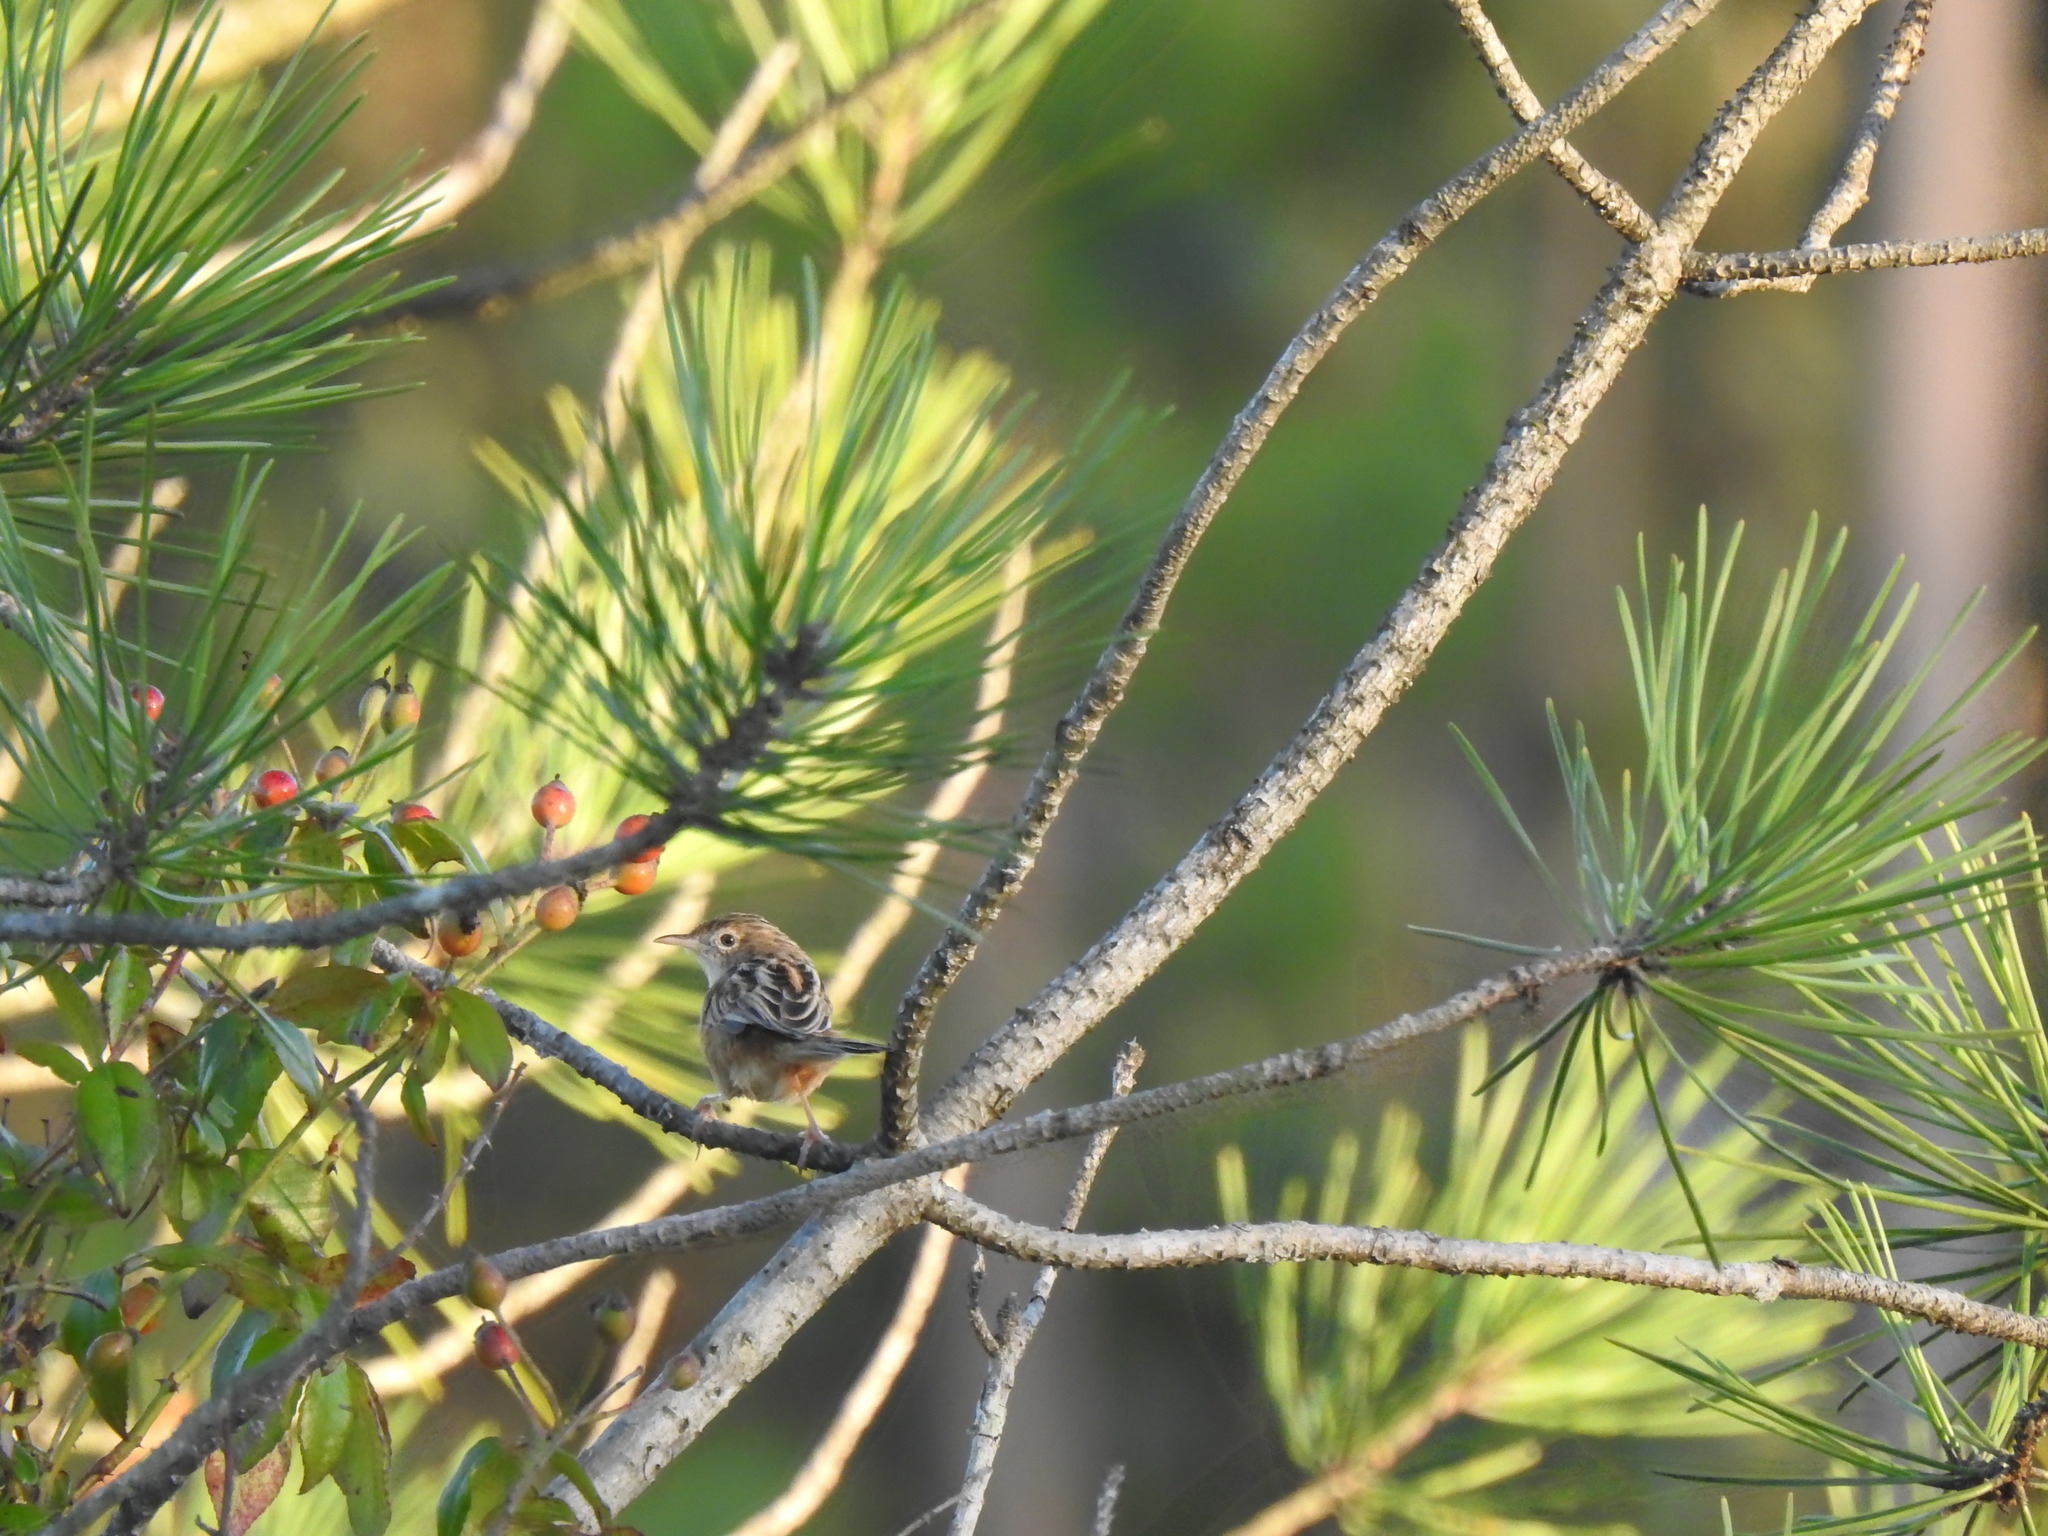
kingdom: Animalia
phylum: Chordata
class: Aves
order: Passeriformes
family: Cisticolidae
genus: Cisticola
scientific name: Cisticola juncidis
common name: Zitting cisticola
